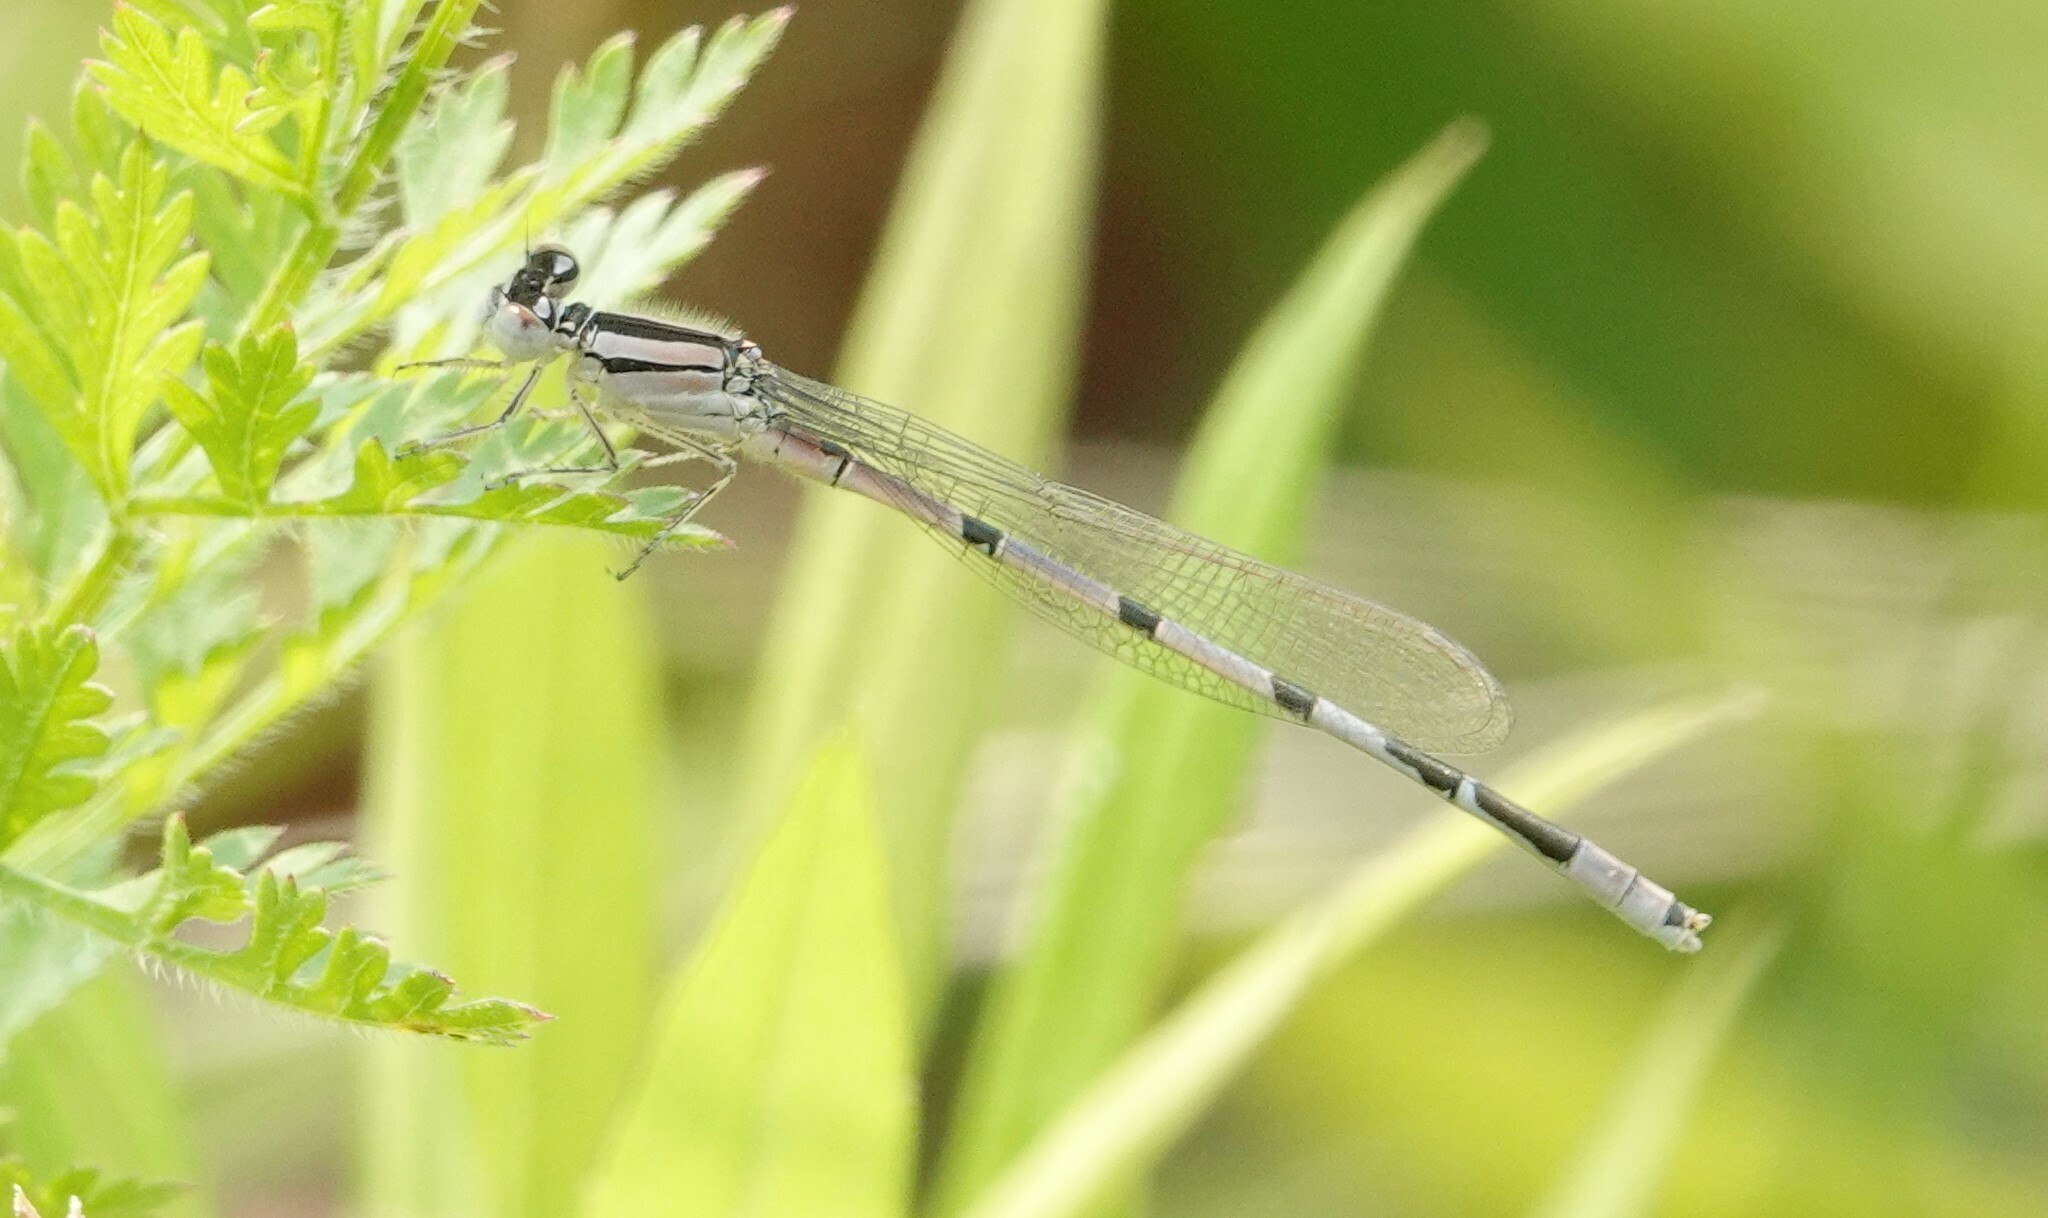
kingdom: Animalia
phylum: Arthropoda
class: Insecta
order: Odonata
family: Coenagrionidae
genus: Enallagma
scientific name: Enallagma civile
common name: Damselfly
